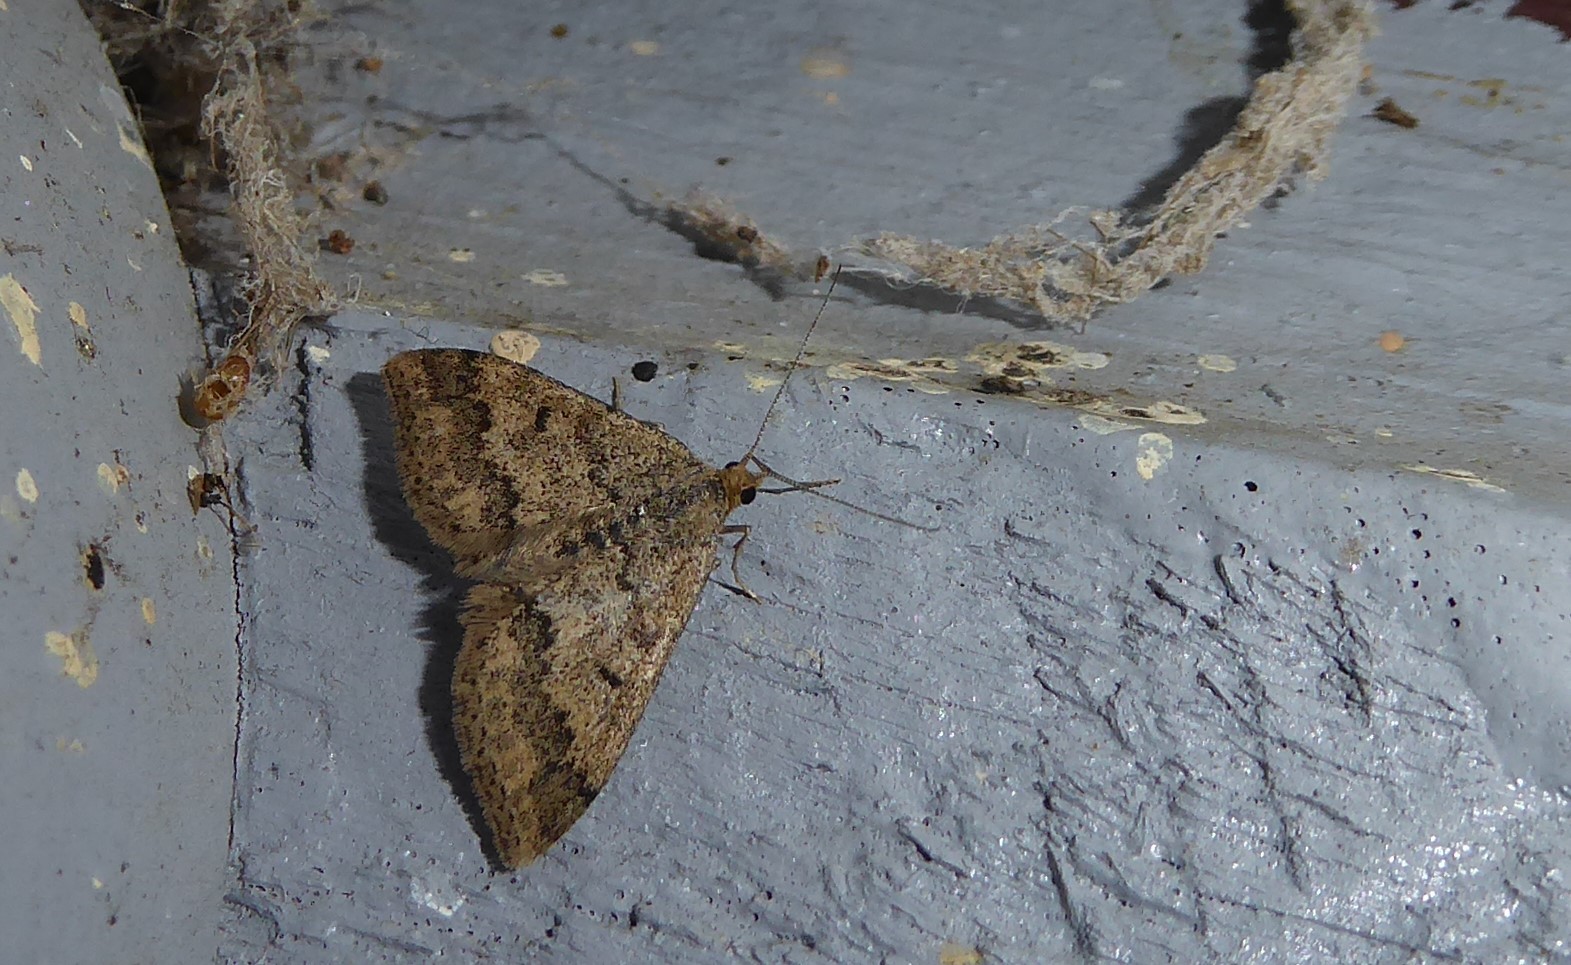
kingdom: Animalia
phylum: Arthropoda
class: Insecta
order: Lepidoptera
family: Geometridae
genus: Scopula
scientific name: Scopula rubraria
